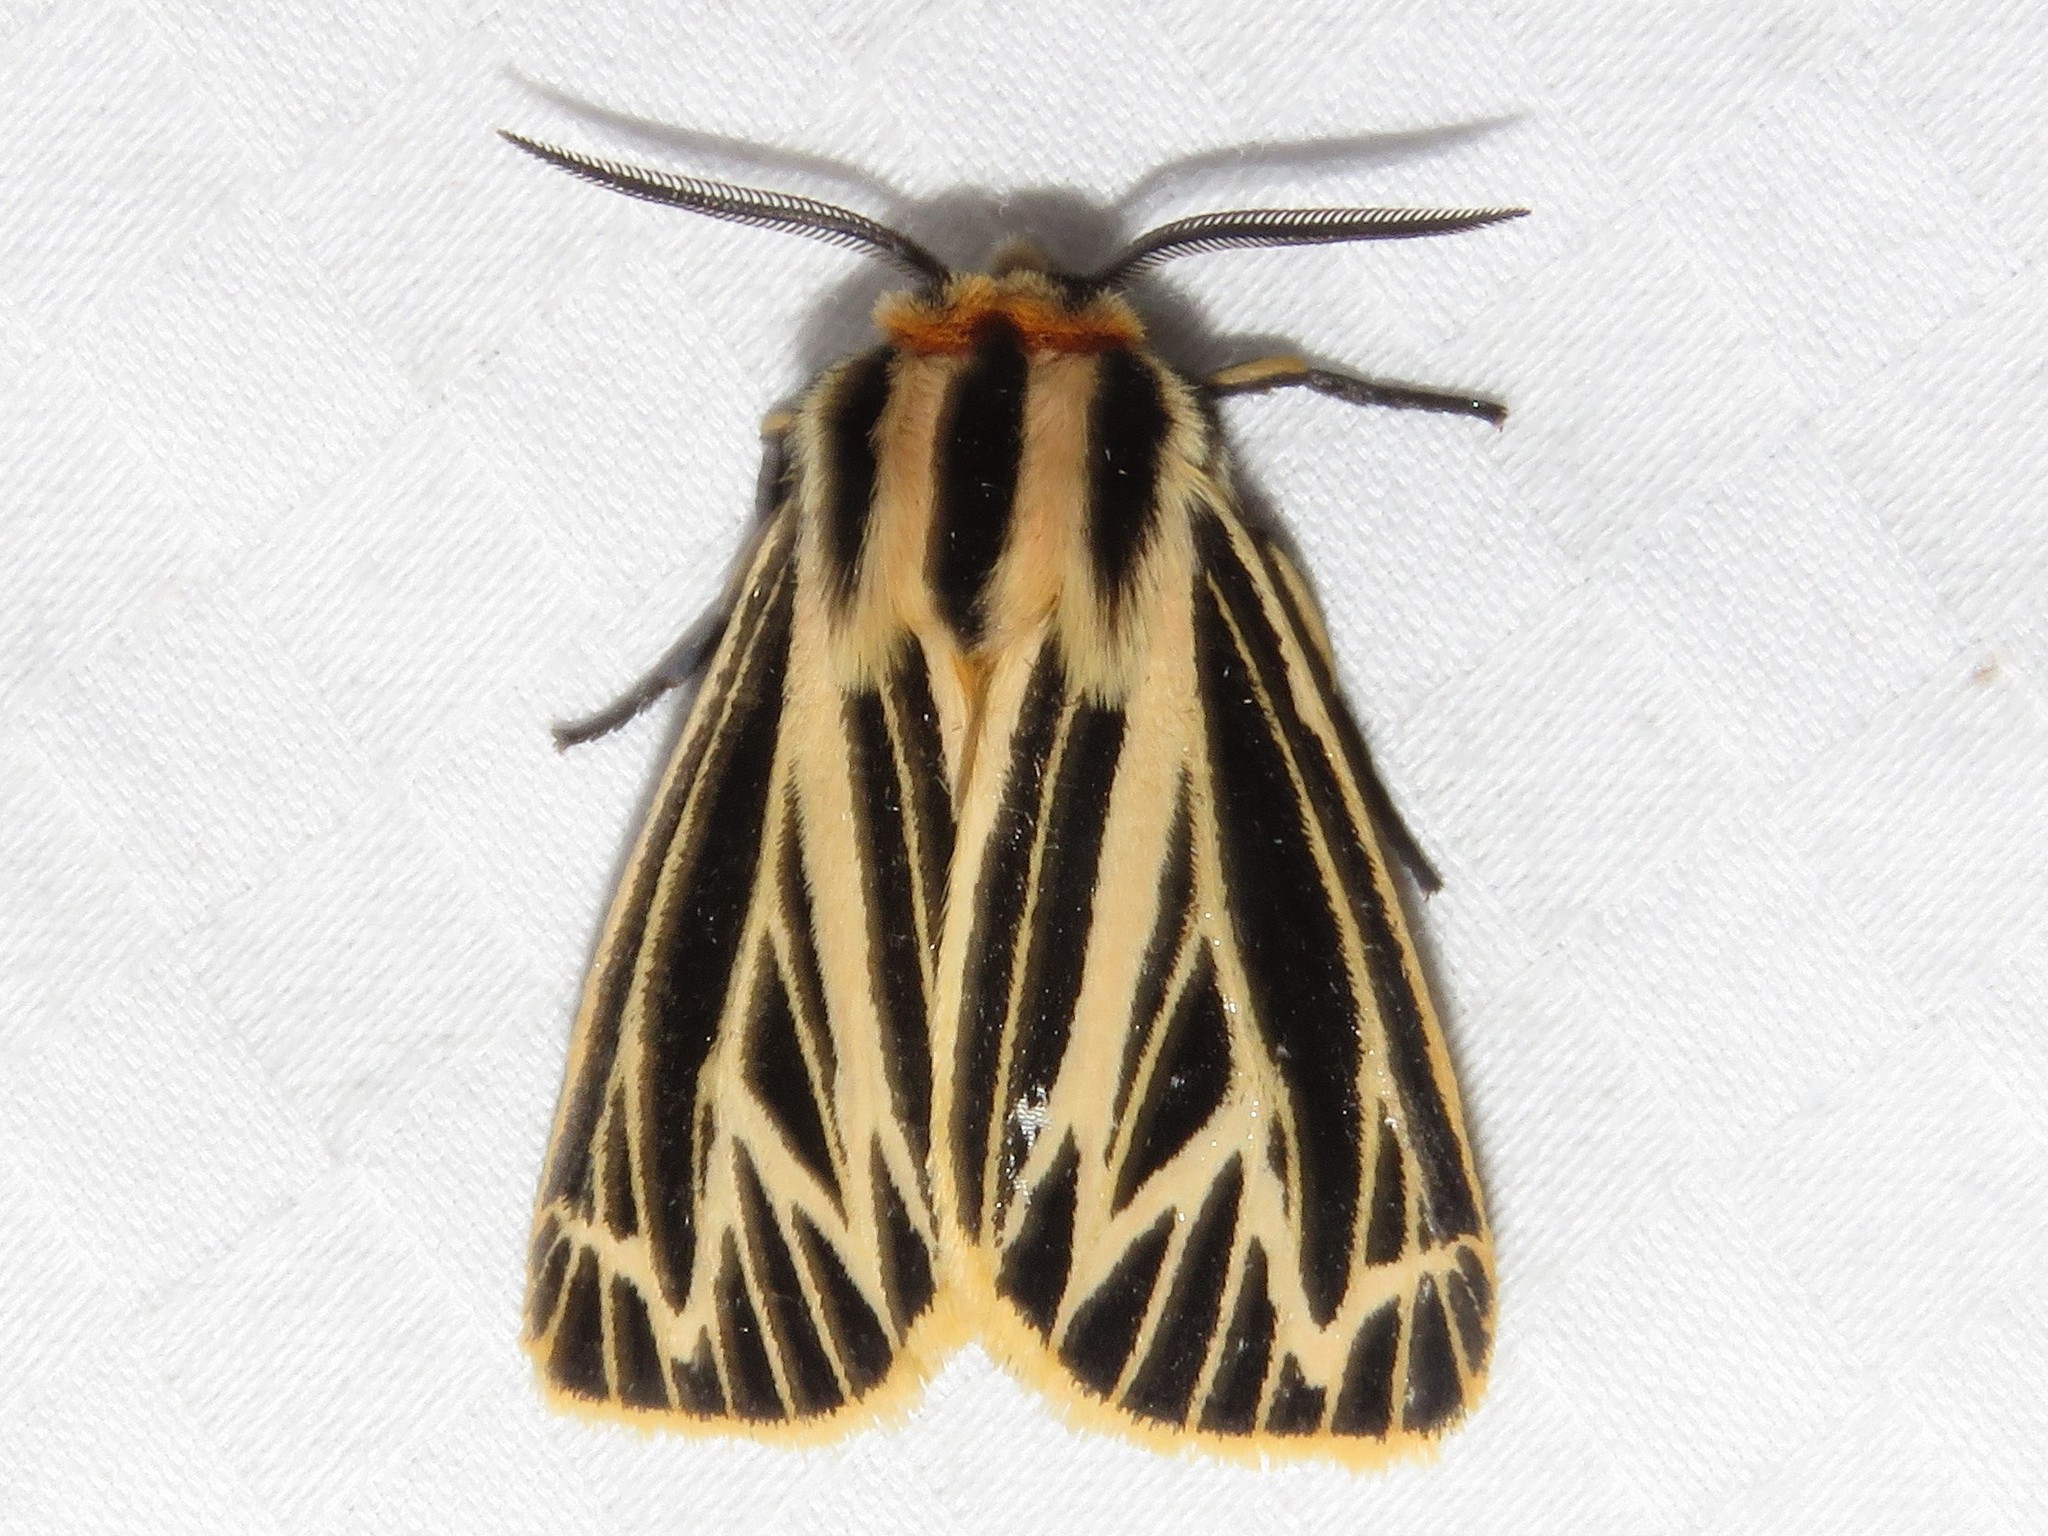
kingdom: Animalia
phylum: Arthropoda
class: Insecta
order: Lepidoptera
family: Erebidae
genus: Grammia
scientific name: Grammia virguncula
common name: Little tiger moth
